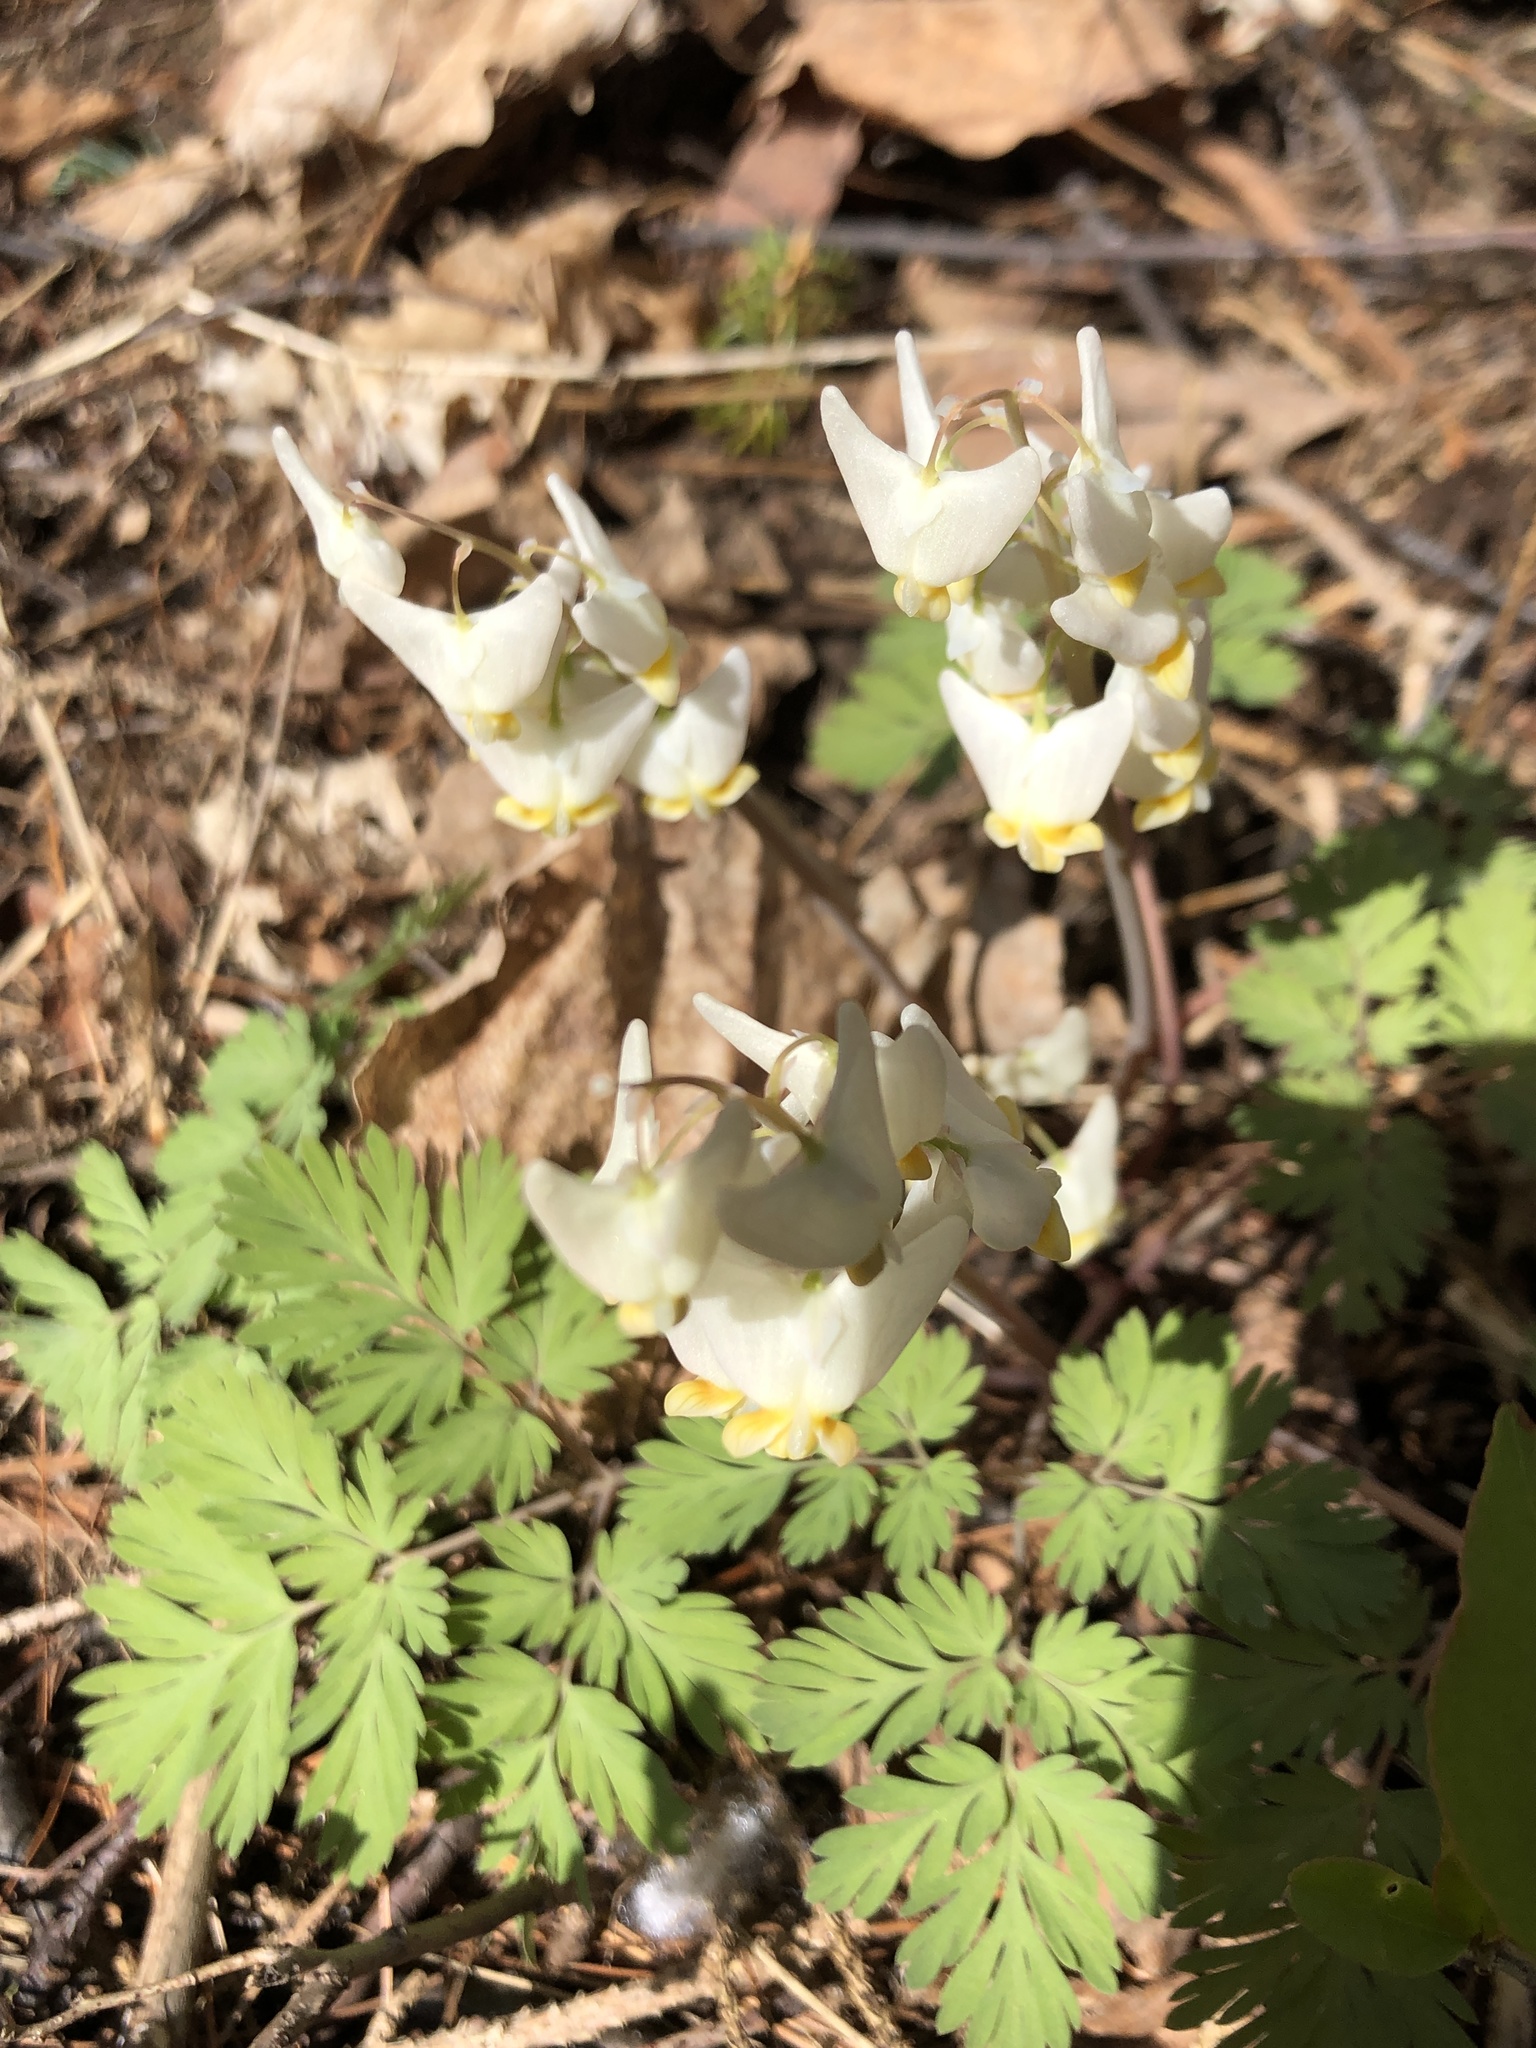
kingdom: Plantae
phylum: Tracheophyta
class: Magnoliopsida
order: Ranunculales
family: Papaveraceae
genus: Dicentra
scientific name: Dicentra cucullaria
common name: Dutchman's breeches
